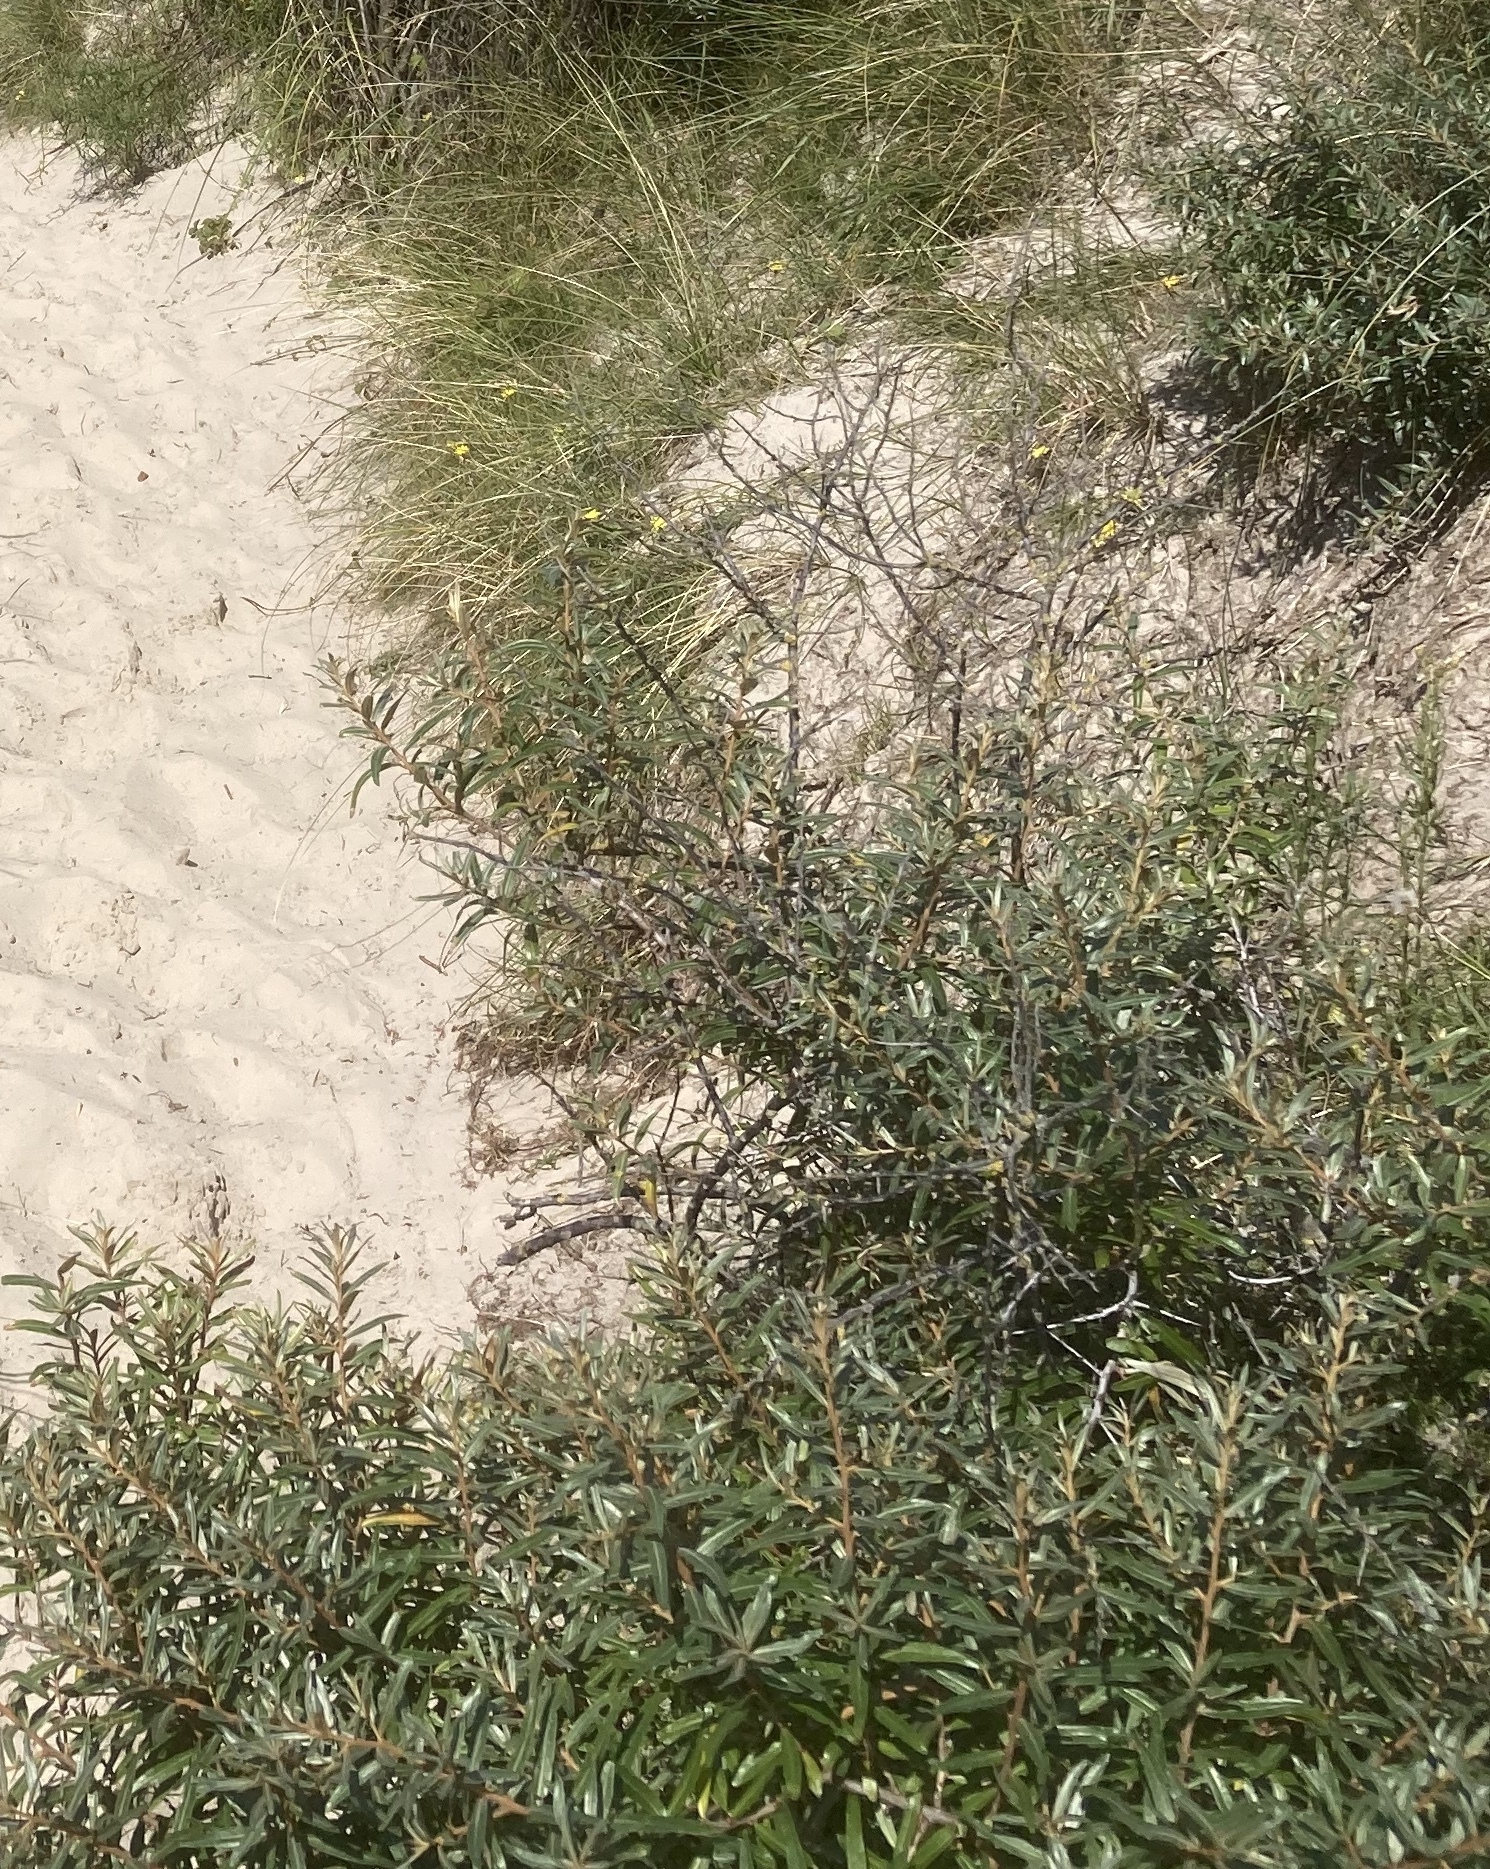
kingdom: Plantae
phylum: Tracheophyta
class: Magnoliopsida
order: Rosales
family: Elaeagnaceae
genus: Hippophae
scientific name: Hippophae rhamnoides
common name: Sea-buckthorn
